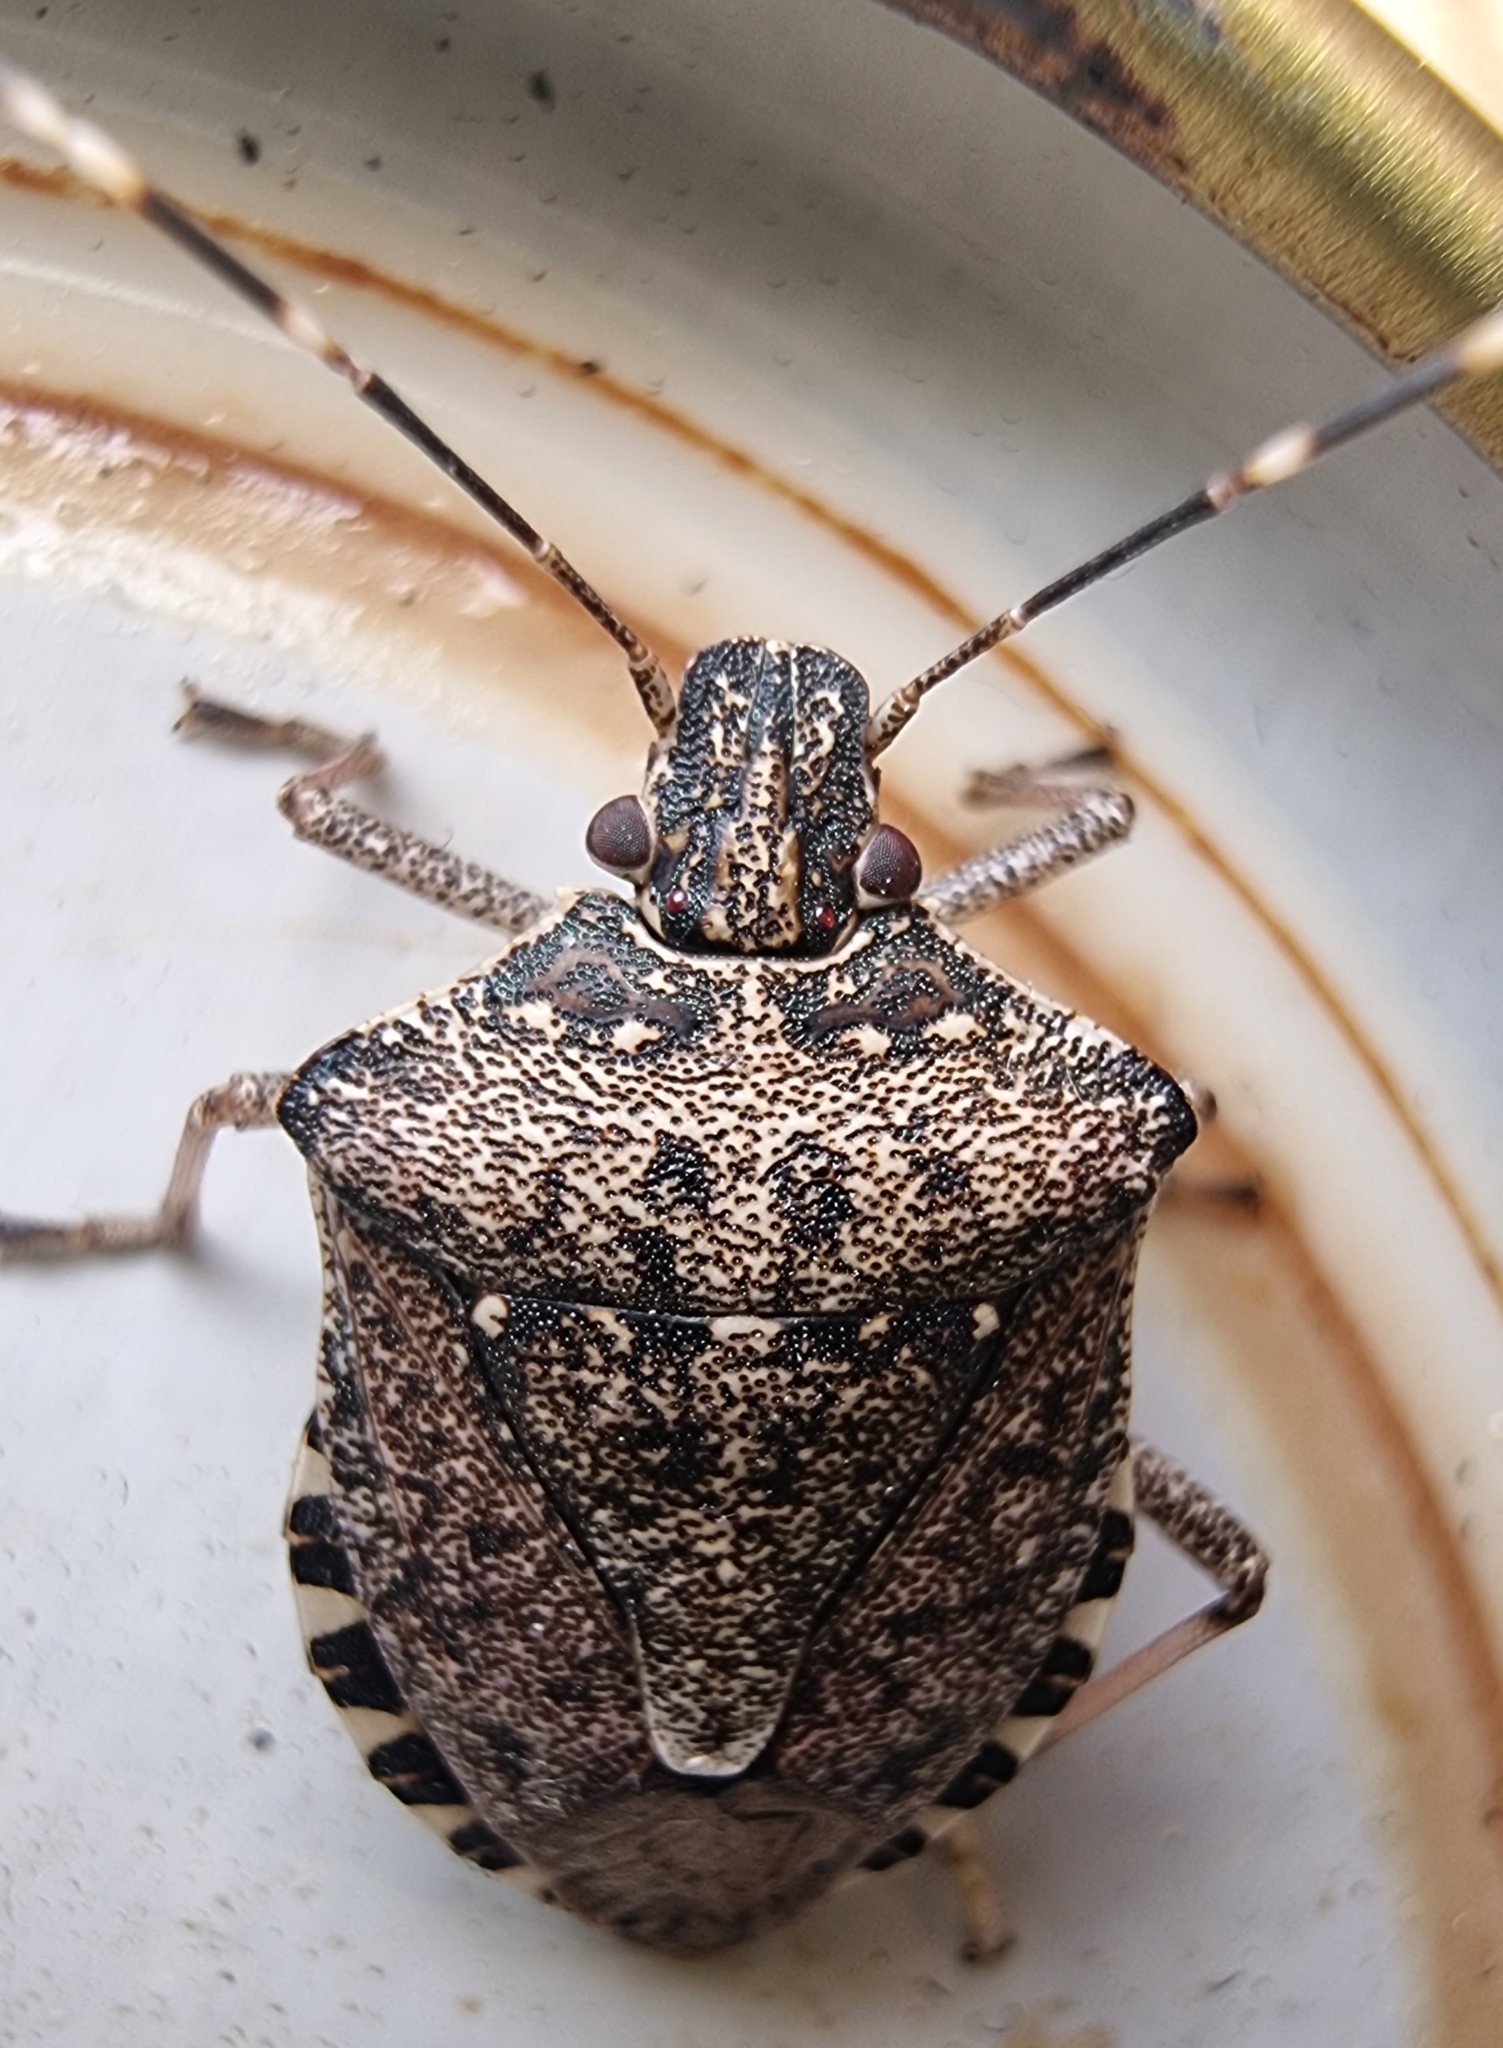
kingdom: Animalia
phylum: Arthropoda
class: Insecta
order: Hemiptera
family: Pentatomidae
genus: Halyomorpha
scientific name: Halyomorpha halys
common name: Brown marmorated stink bug
